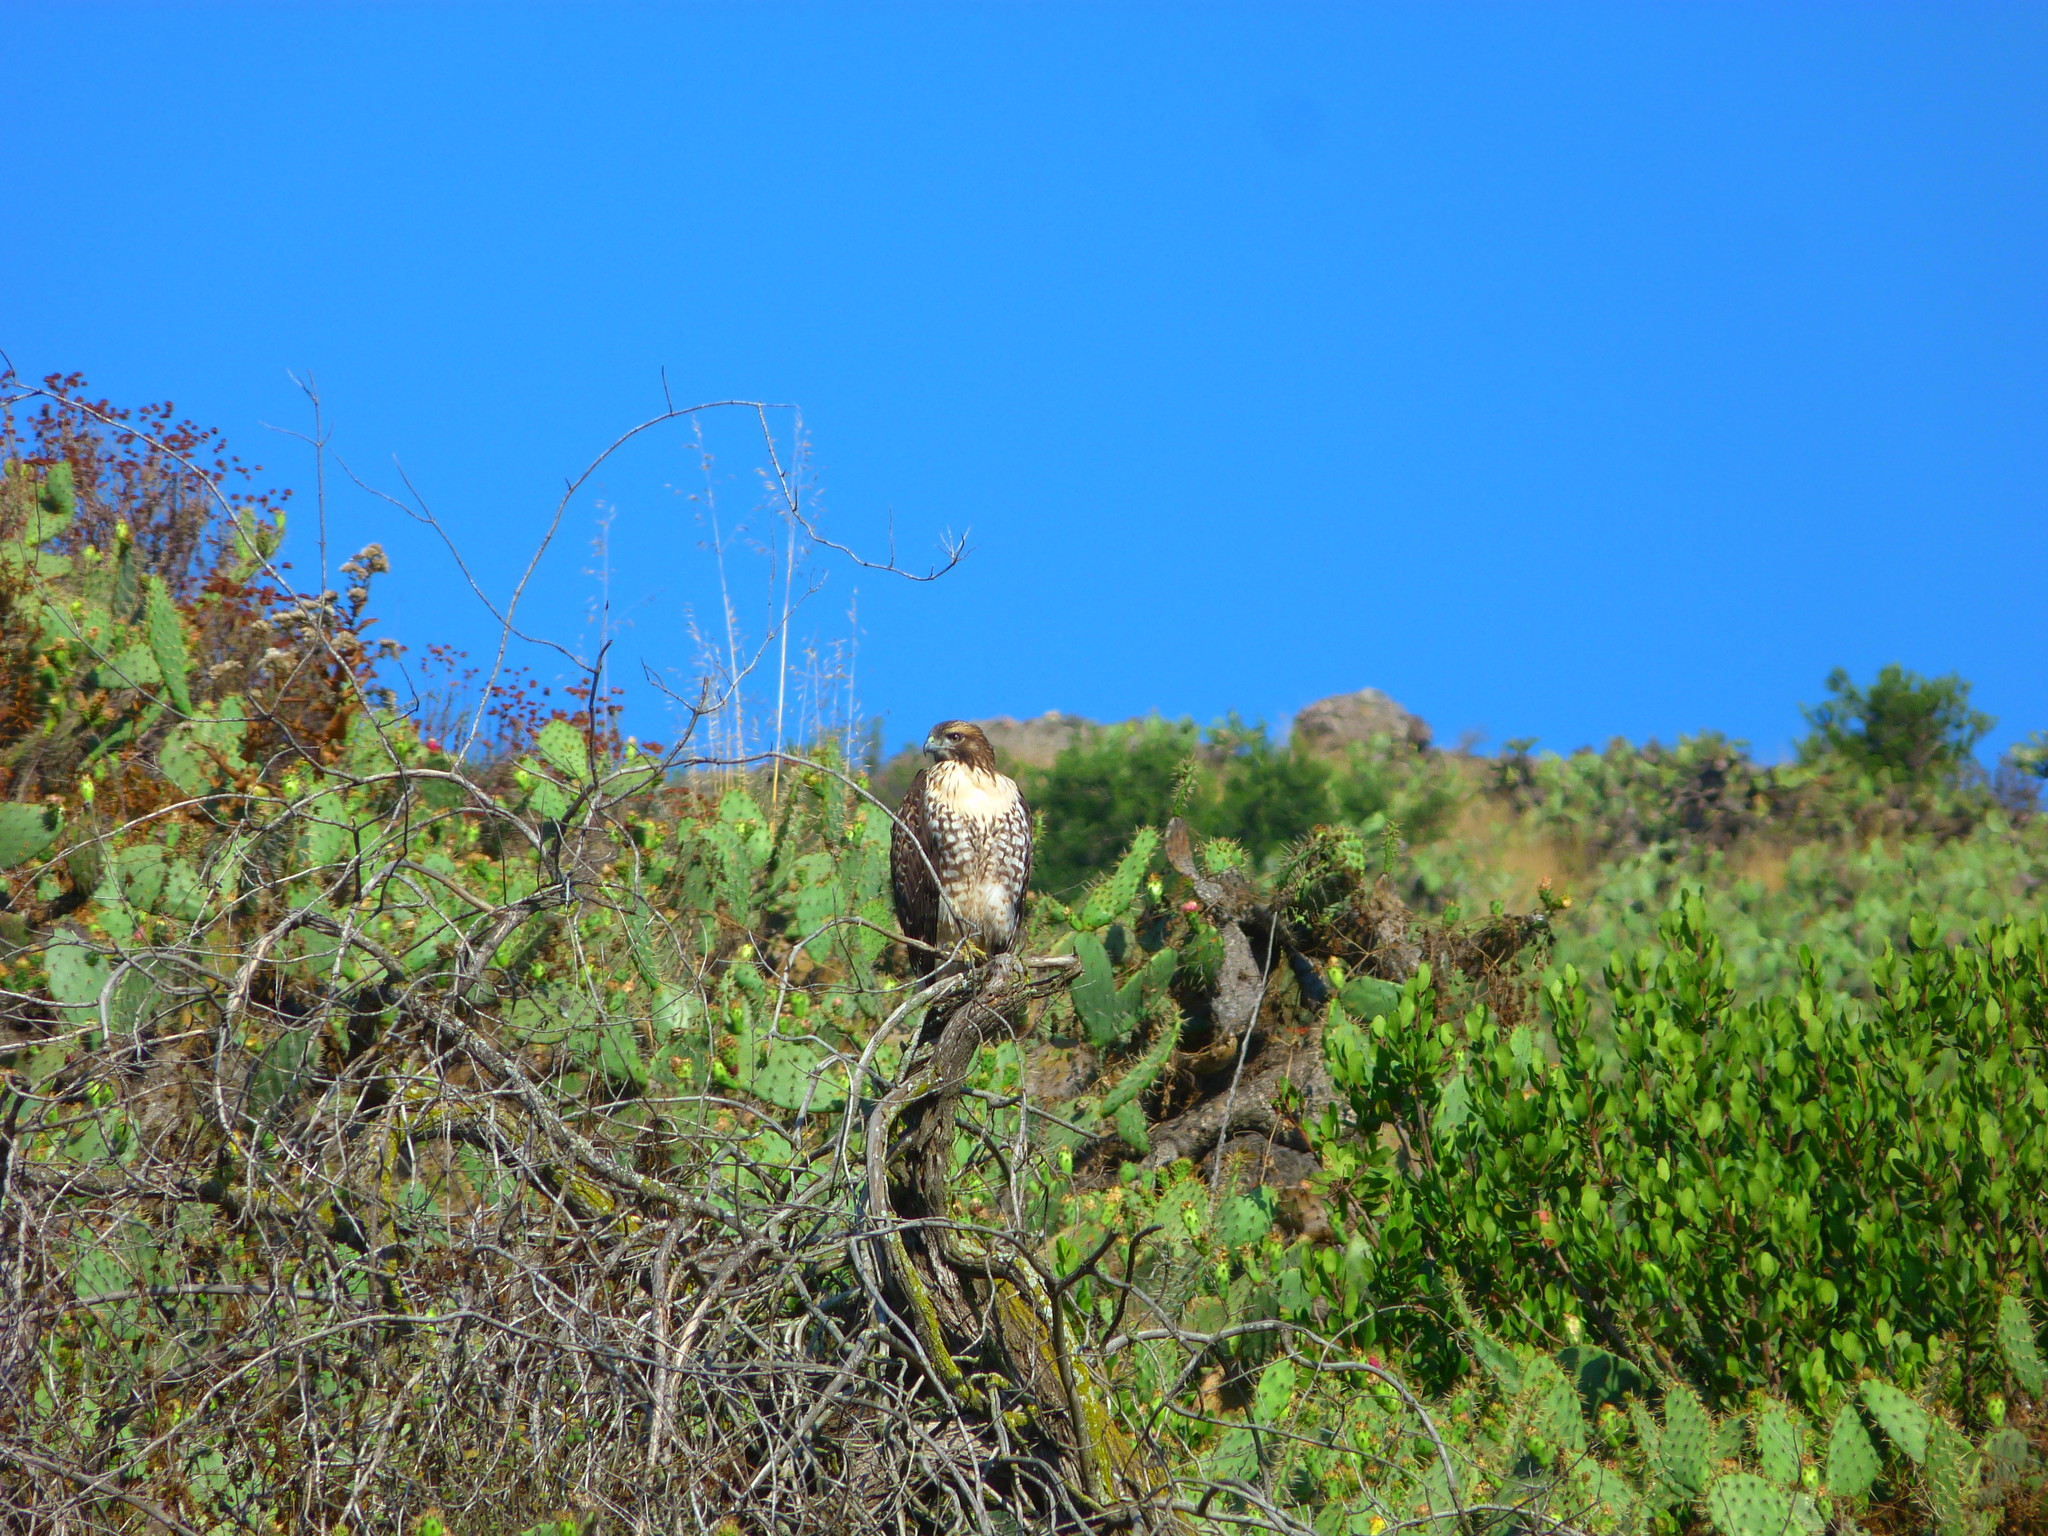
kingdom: Animalia
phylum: Chordata
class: Aves
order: Accipitriformes
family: Accipitridae
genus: Buteo
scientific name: Buteo jamaicensis
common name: Red-tailed hawk
